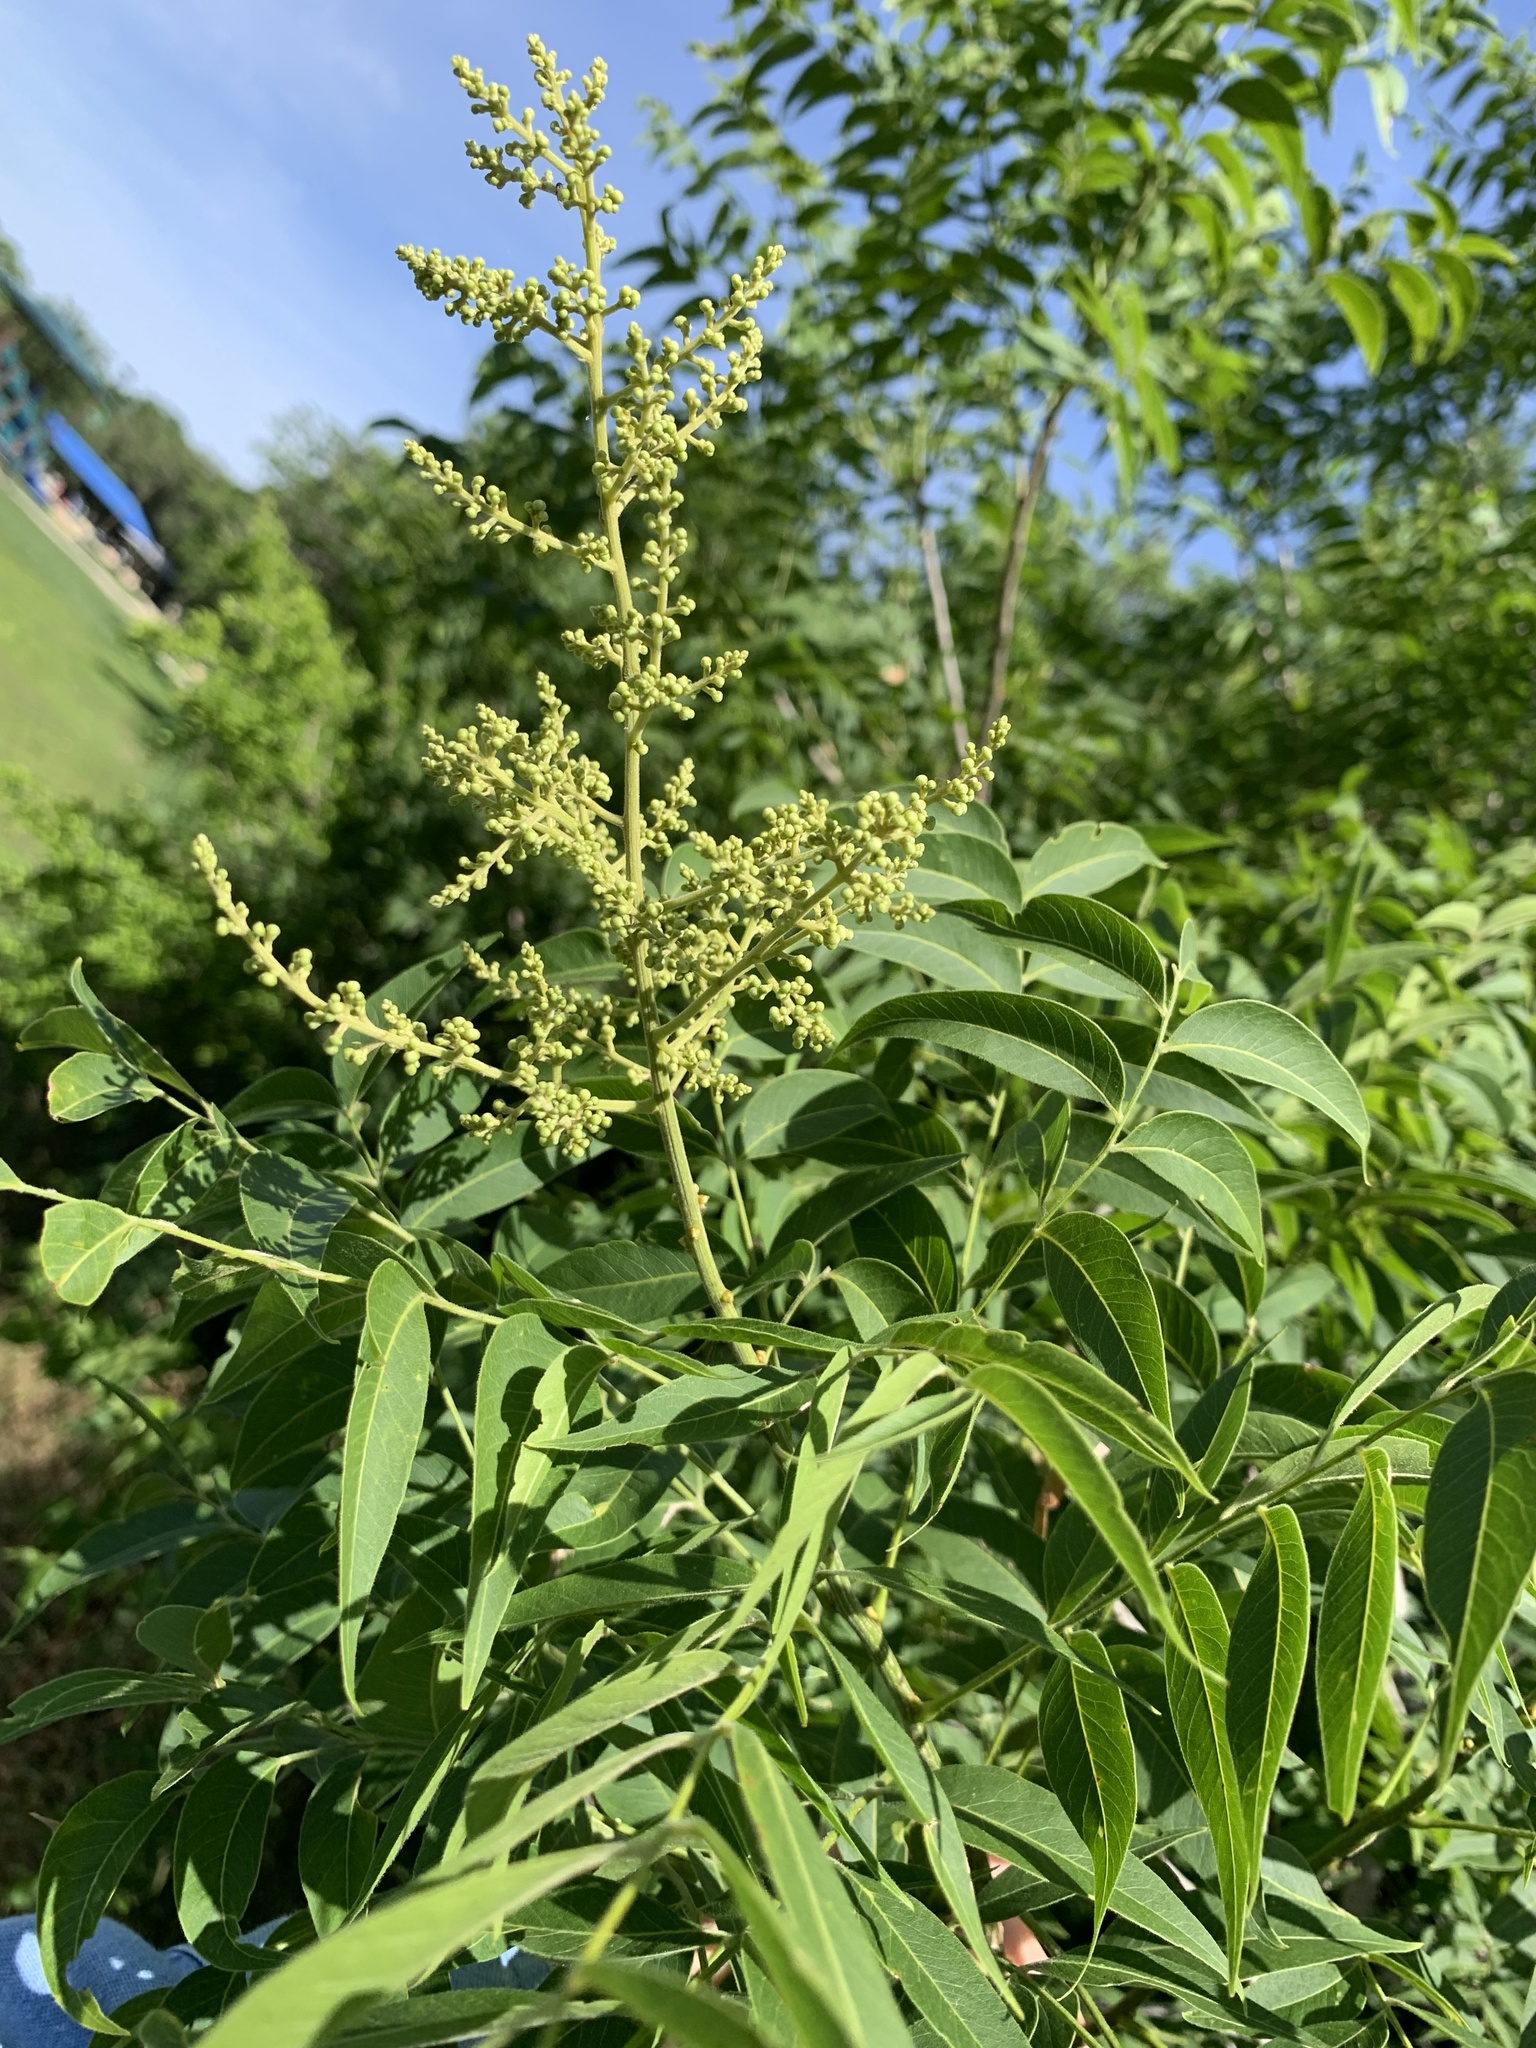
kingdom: Plantae
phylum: Tracheophyta
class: Magnoliopsida
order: Sapindales
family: Sapindaceae
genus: Sapindus
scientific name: Sapindus drummondii
